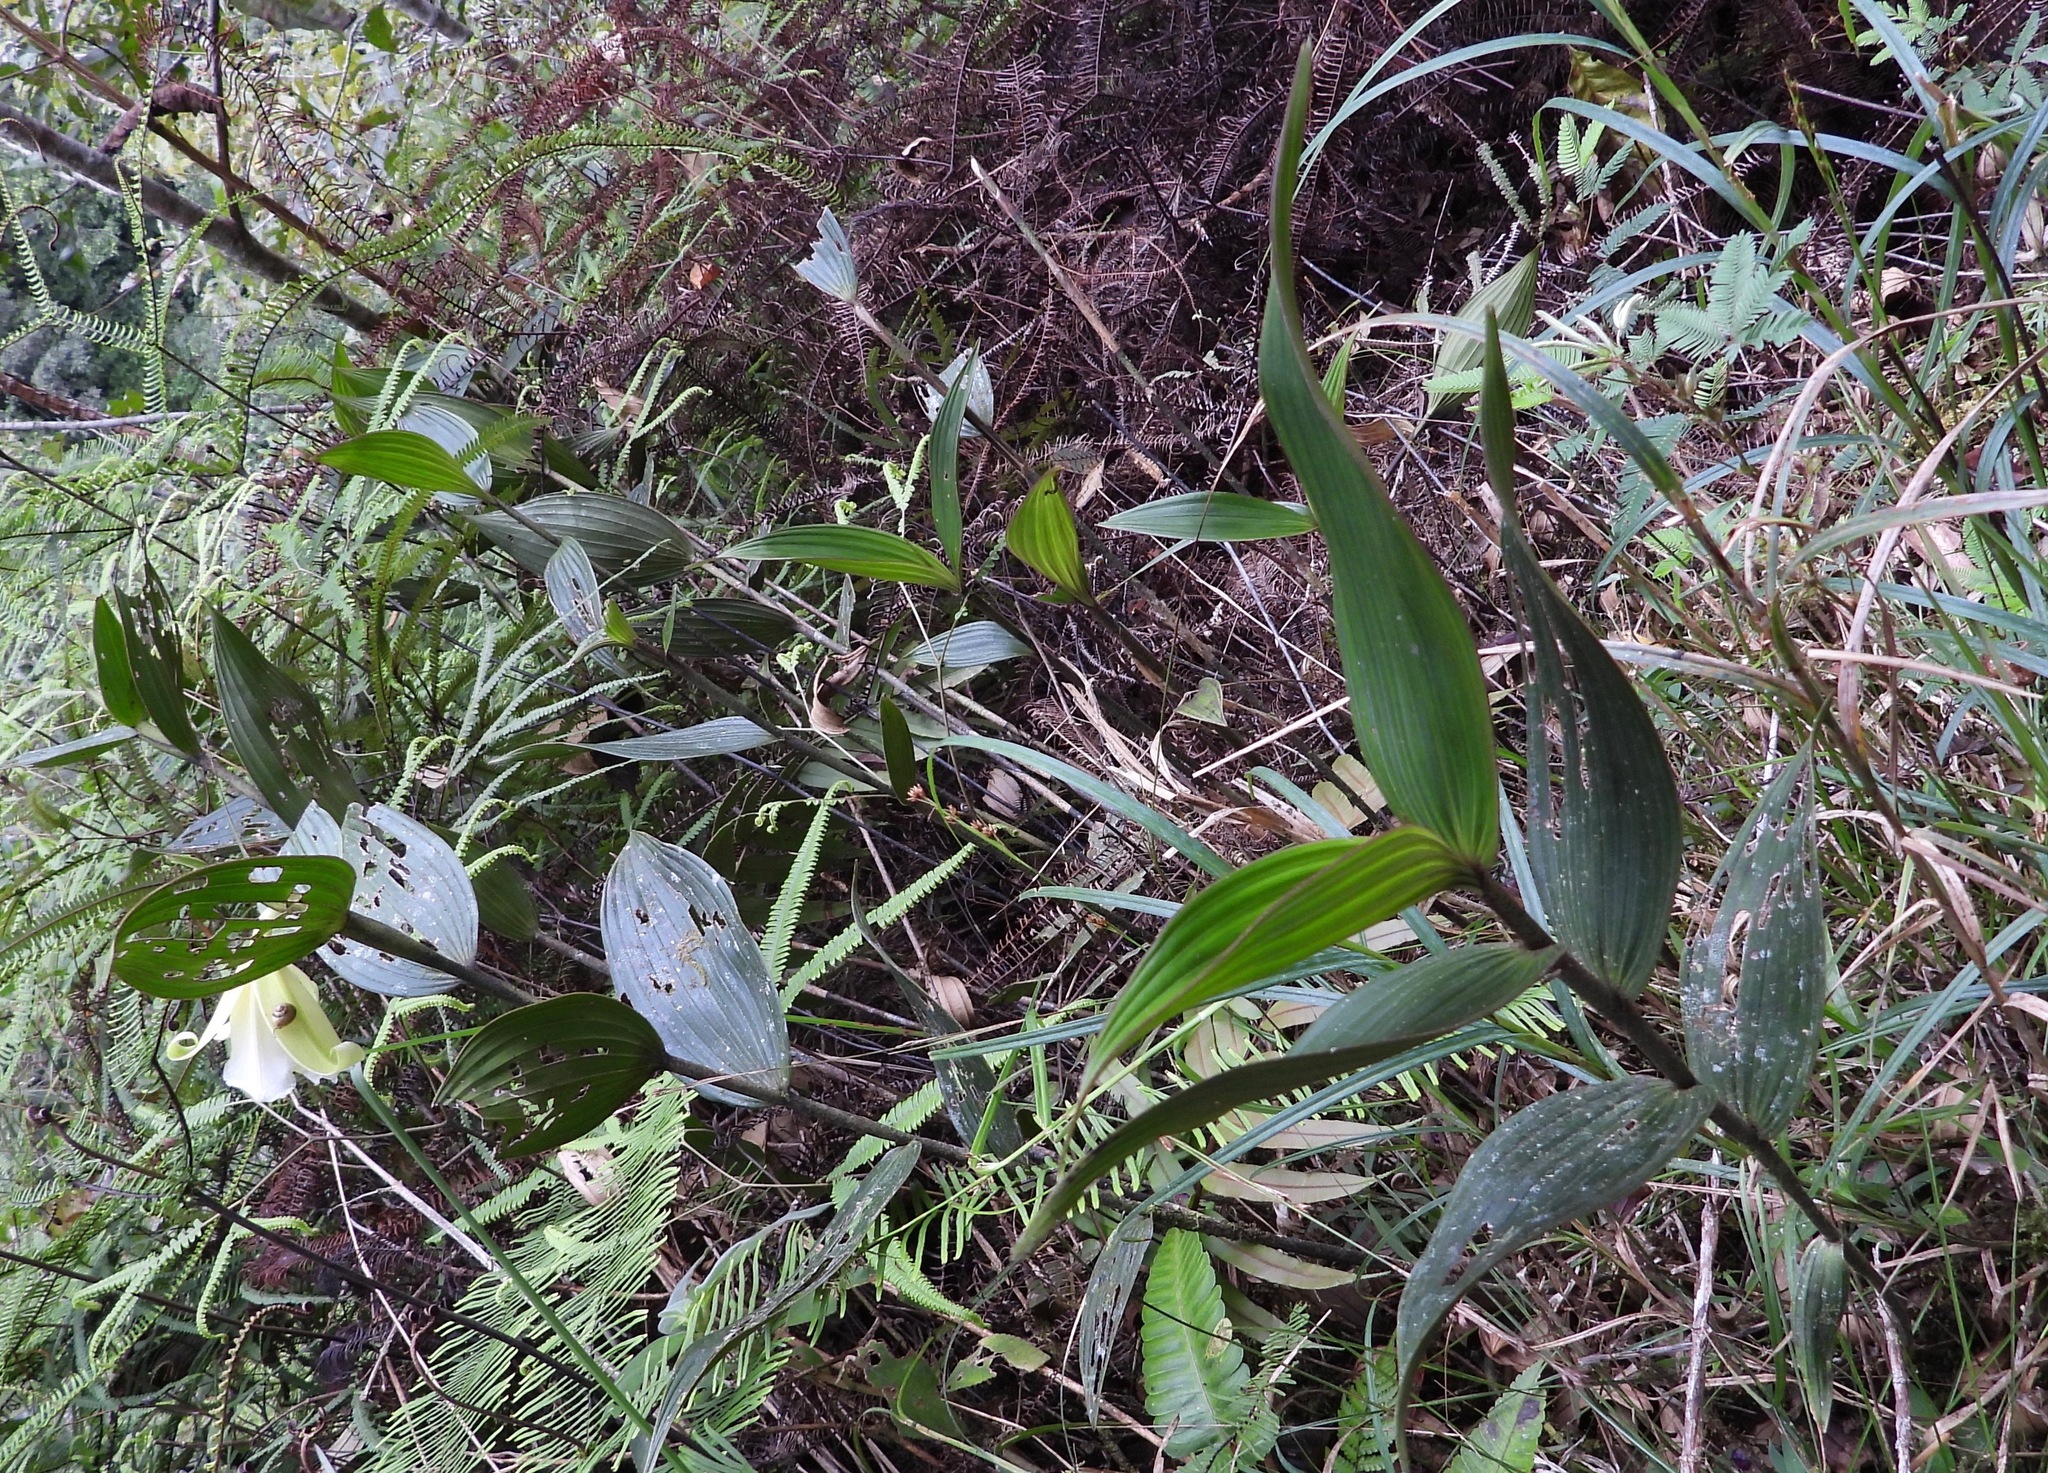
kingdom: Plantae
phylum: Tracheophyta
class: Liliopsida
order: Asparagales
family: Orchidaceae
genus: Sobralia
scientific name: Sobralia xantholeuca
